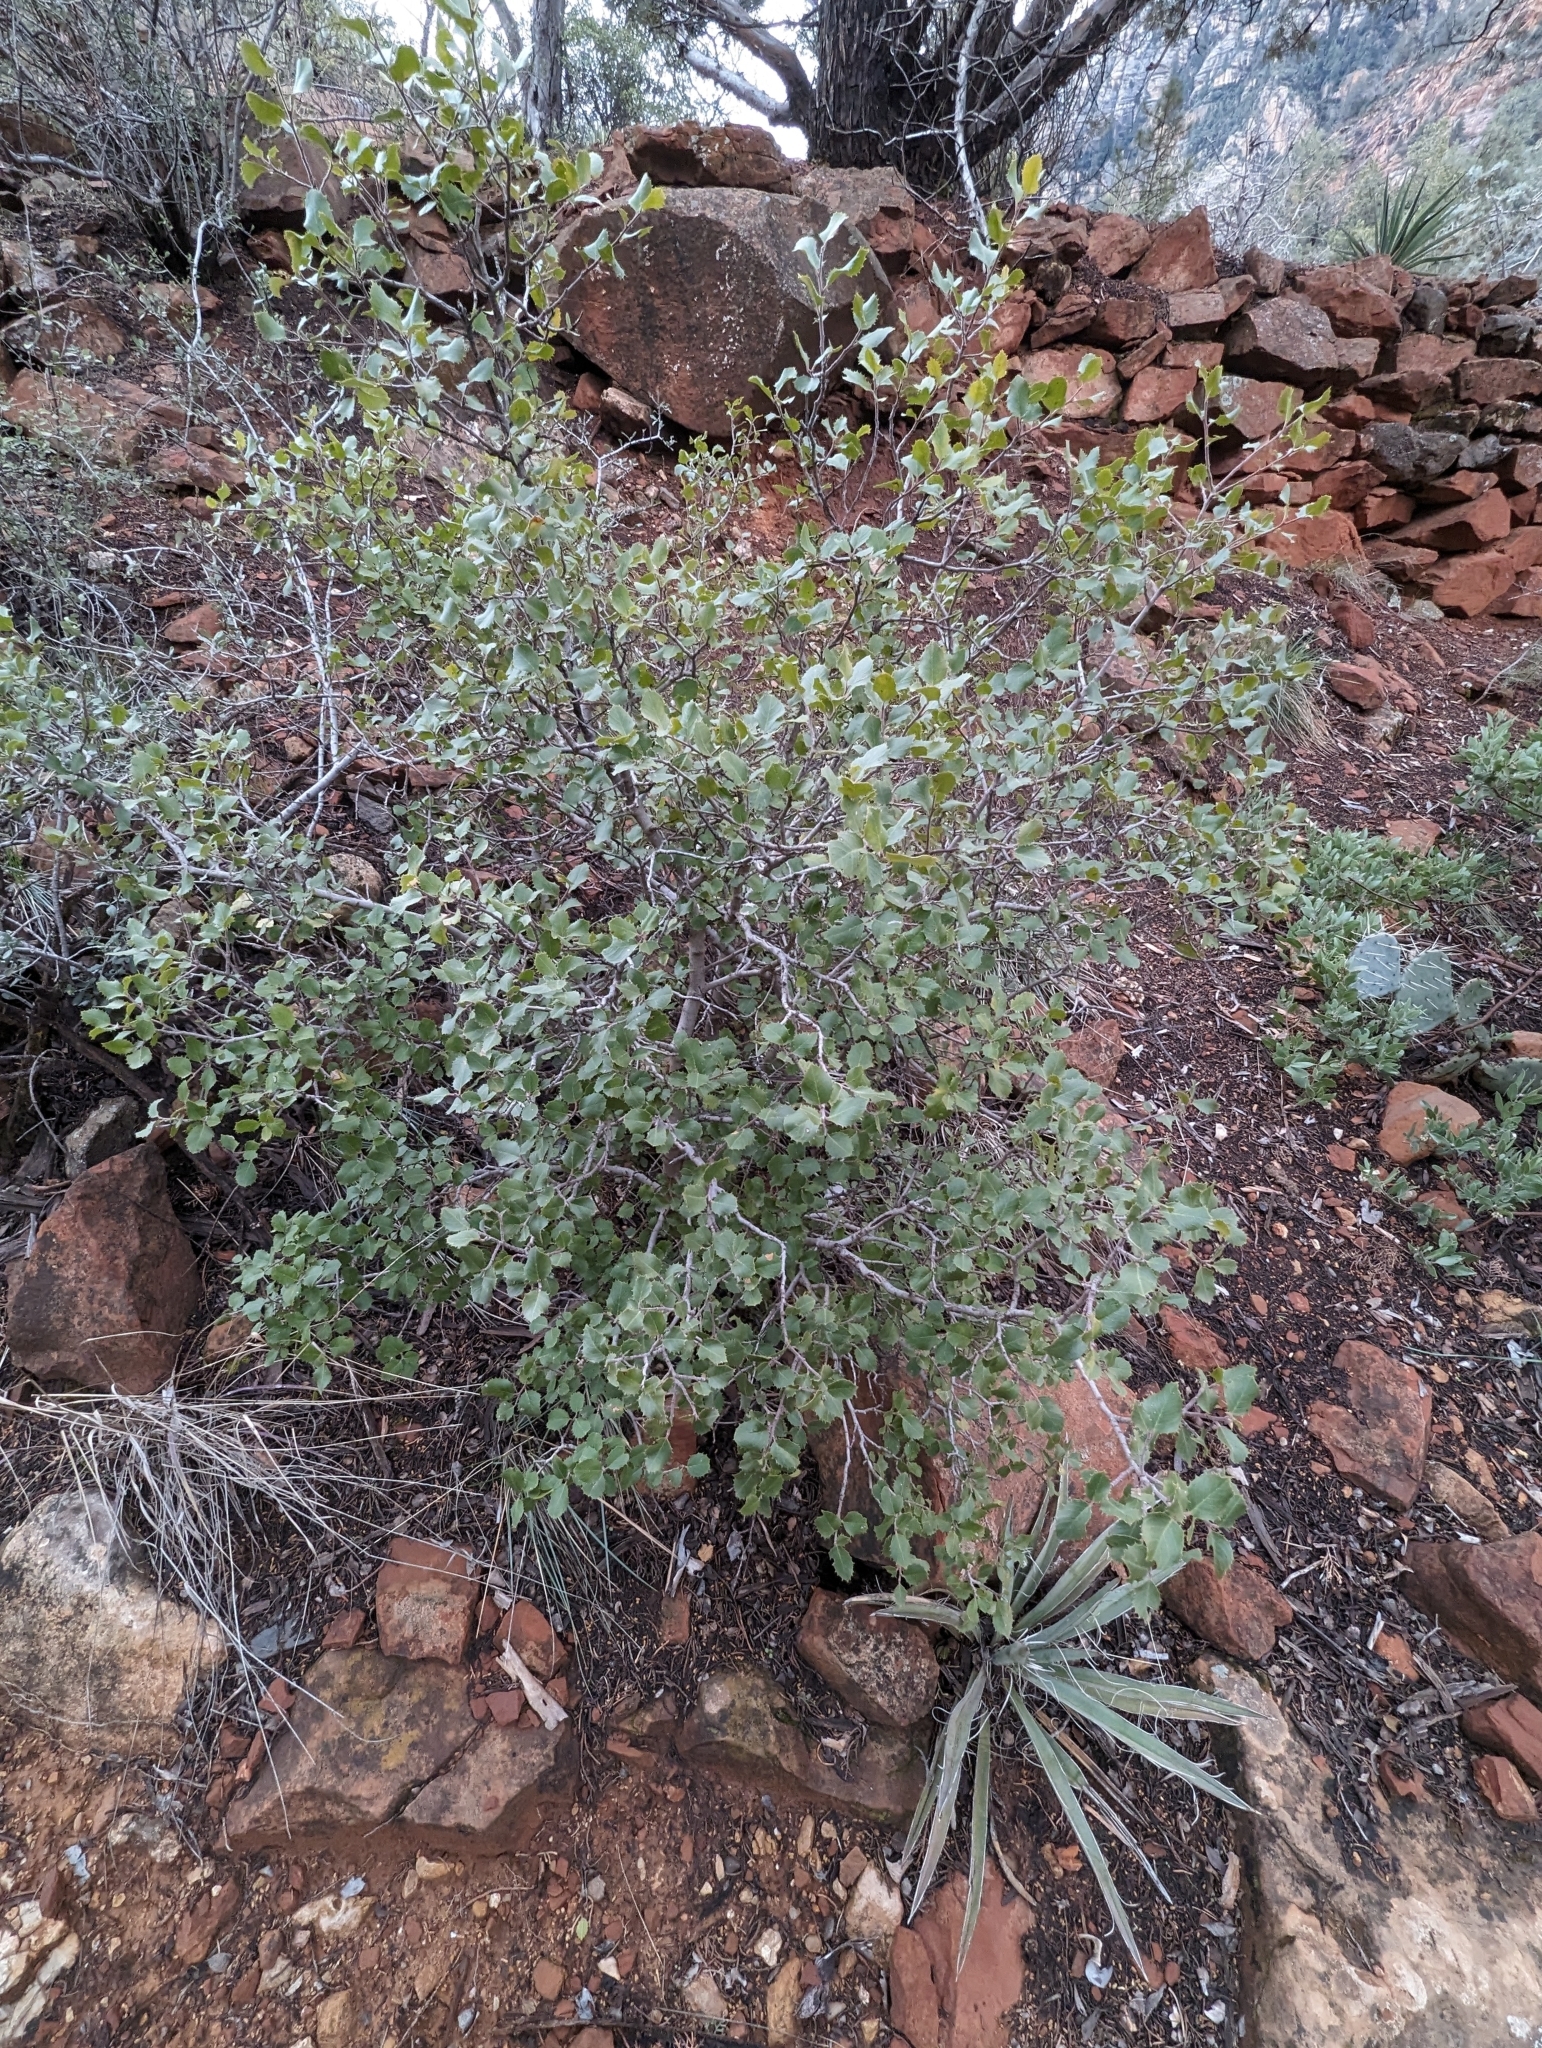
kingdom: Plantae
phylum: Tracheophyta
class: Magnoliopsida
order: Rosales
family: Rhamnaceae
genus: Endotropis
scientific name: Endotropis crocea
